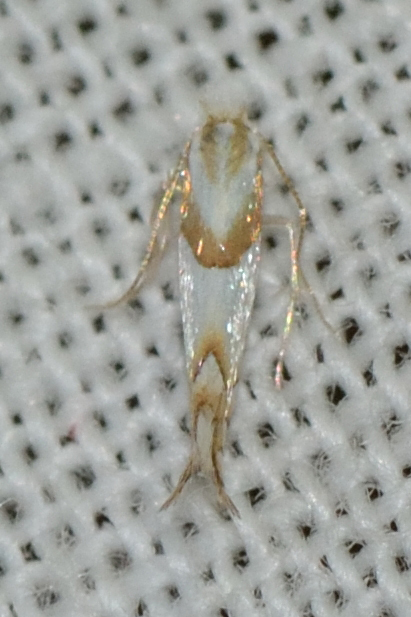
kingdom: Animalia
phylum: Arthropoda
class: Insecta
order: Lepidoptera
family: Gracillariidae
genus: Phyllonorycter
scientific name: Phyllonorycter roboris
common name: Gold-bent midget
